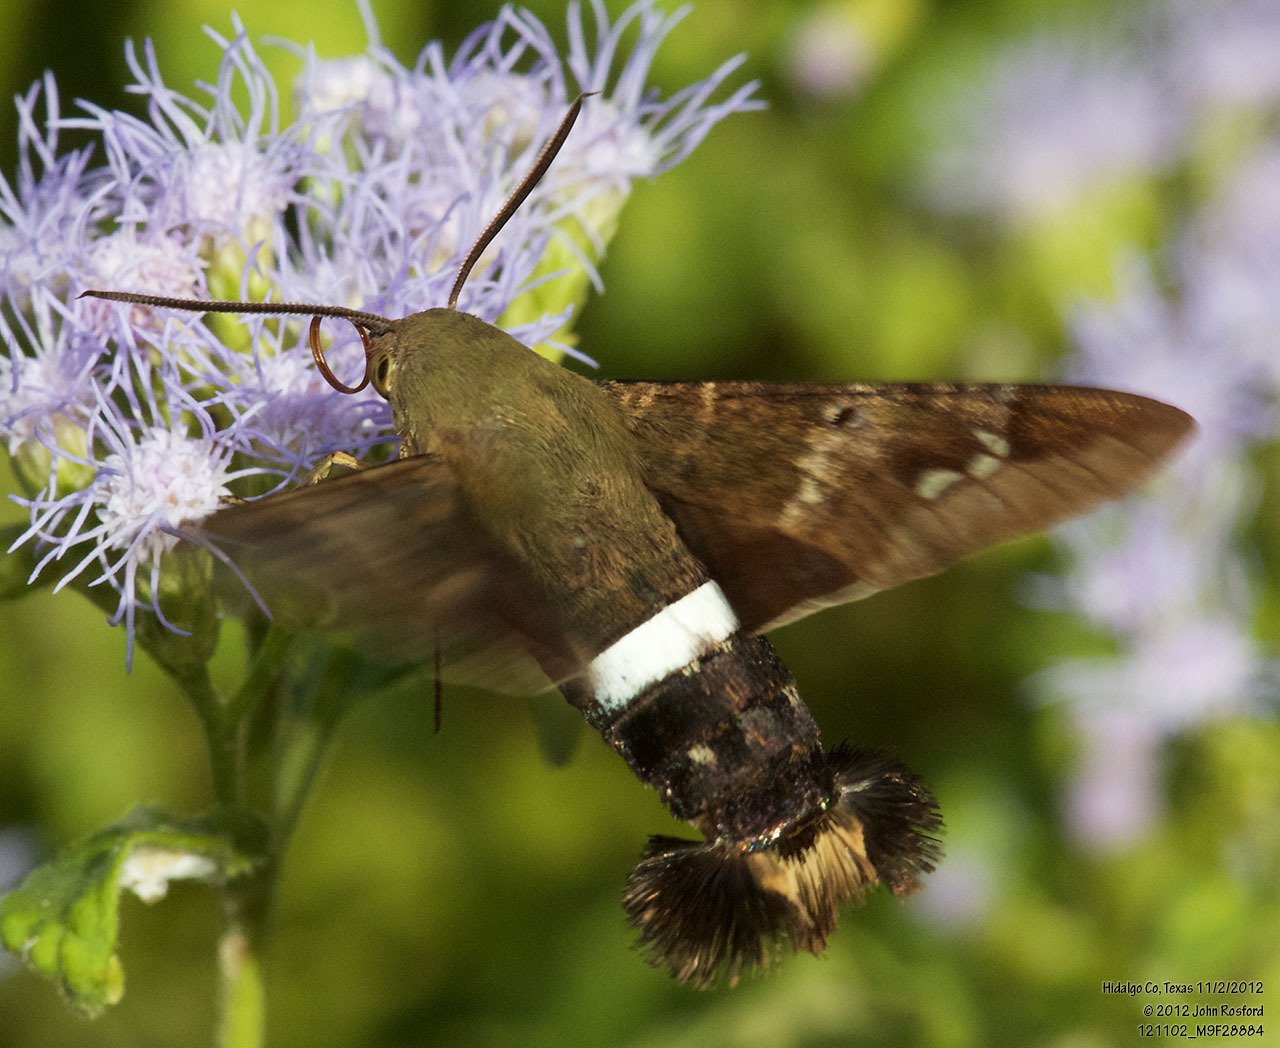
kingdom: Animalia
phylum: Arthropoda
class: Insecta
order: Lepidoptera
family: Sphingidae
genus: Aellopos
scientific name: Aellopos clavipes
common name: Clavipes sphinx
